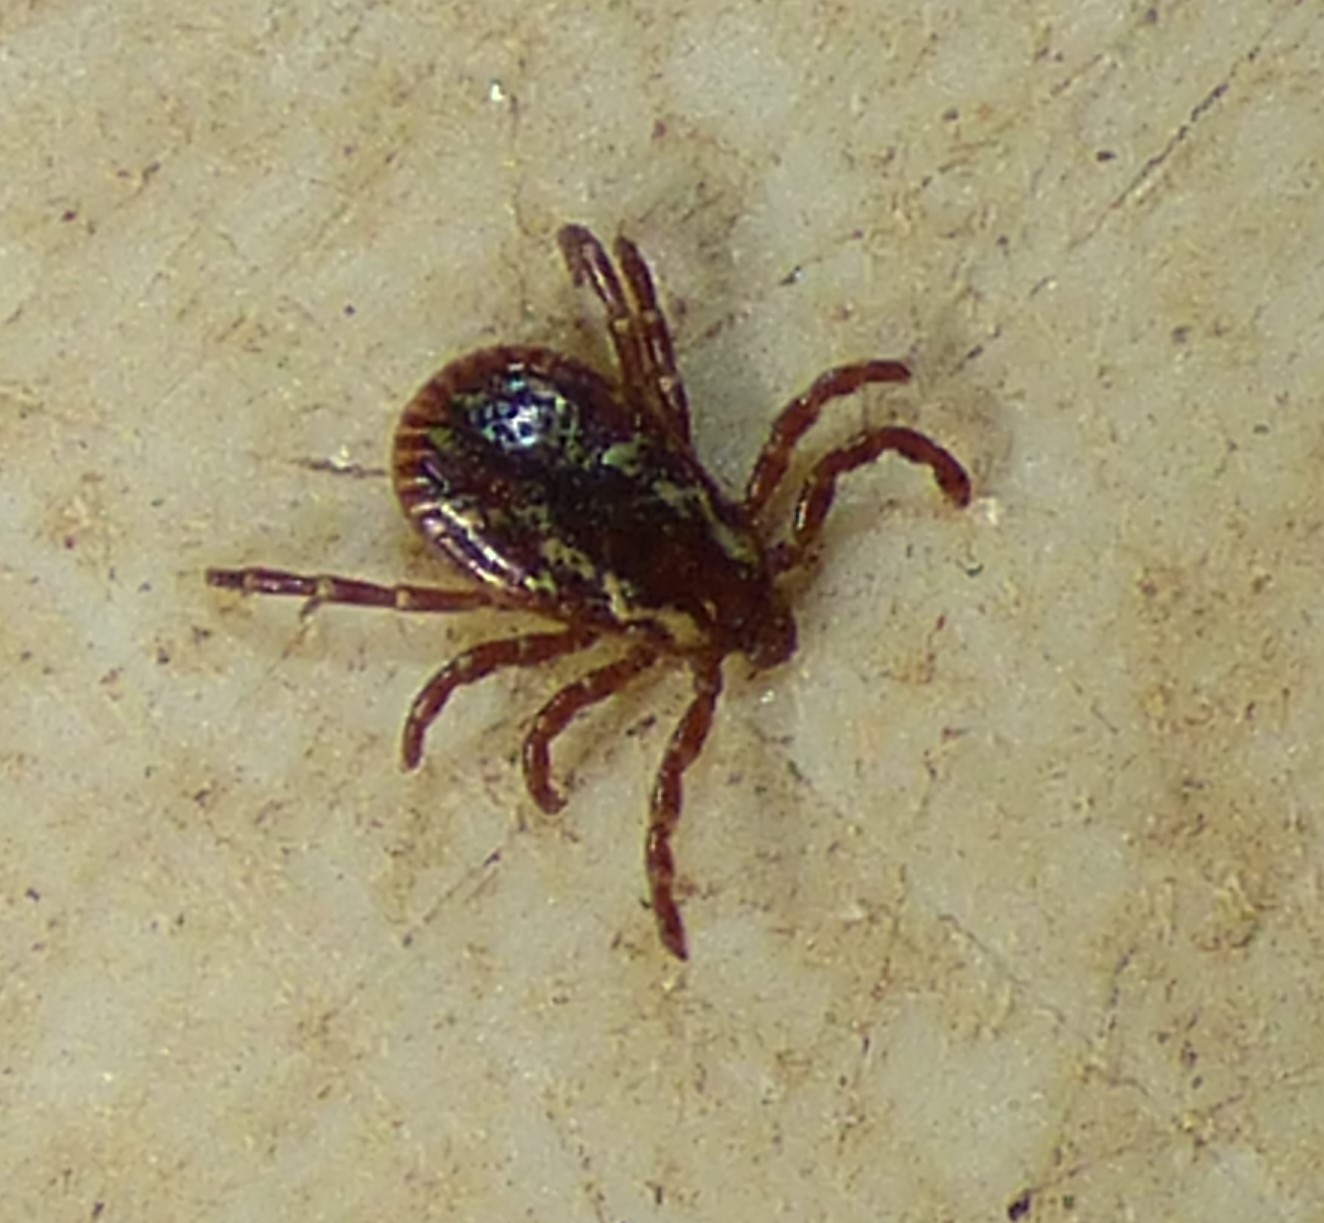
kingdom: Animalia
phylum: Arthropoda
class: Arachnida
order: Ixodida
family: Ixodidae
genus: Dermacentor
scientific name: Dermacentor variabilis
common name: American dog tick
